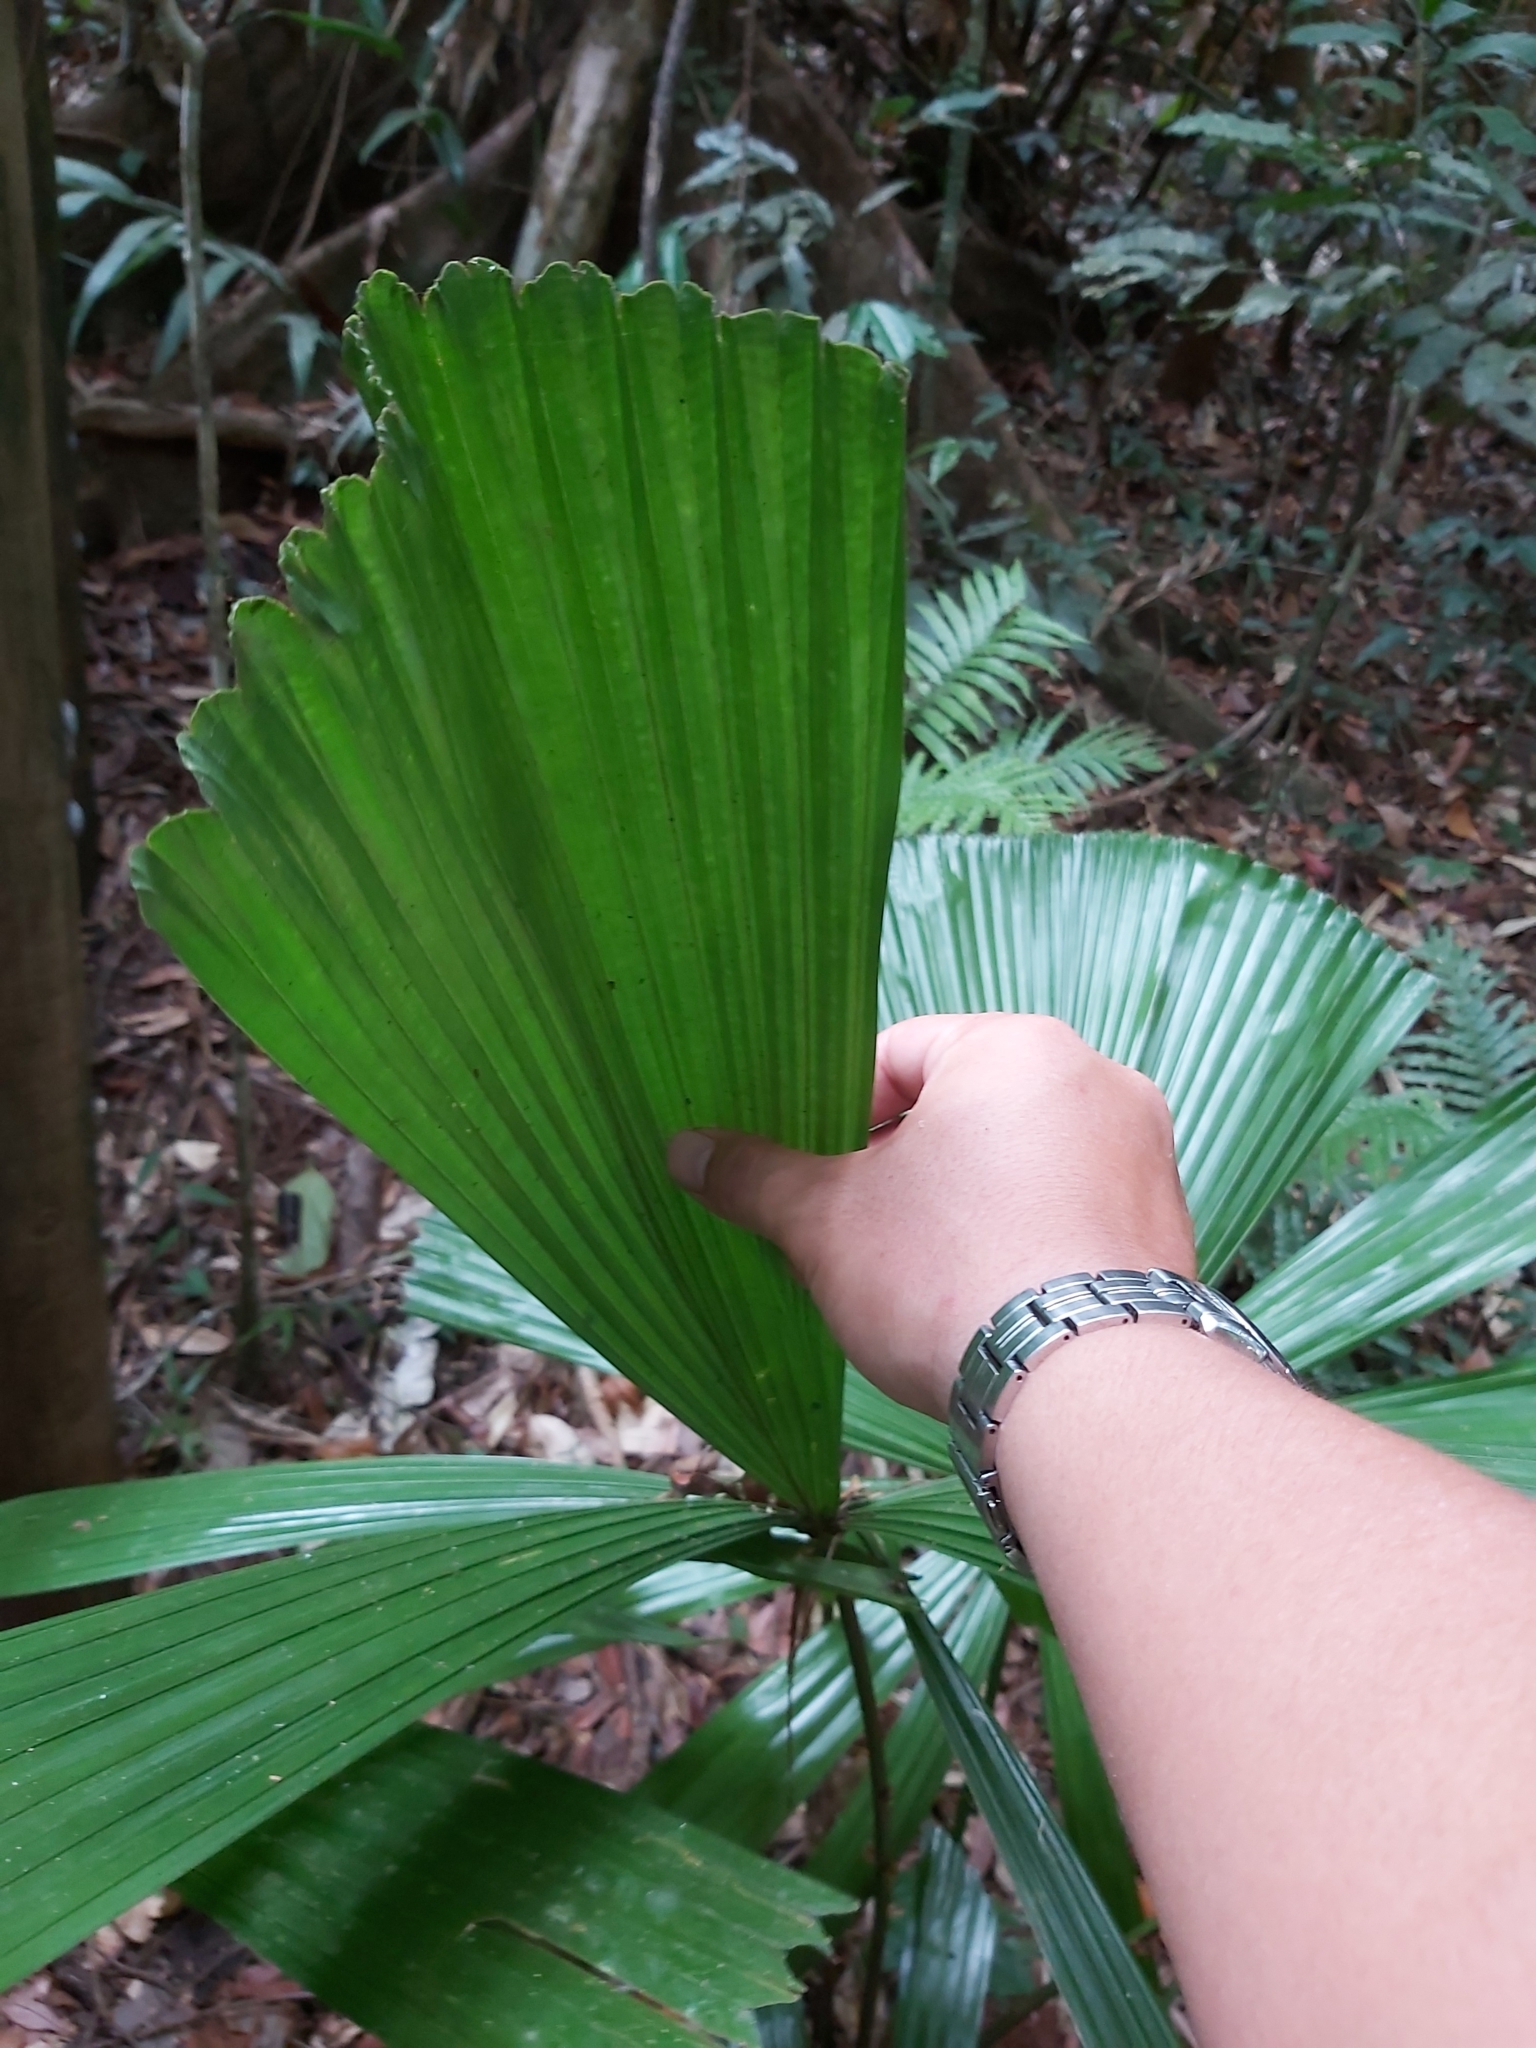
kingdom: Plantae
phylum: Tracheophyta
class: Liliopsida
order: Arecales
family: Arecaceae
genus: Licuala
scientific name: Licuala ramsayi
